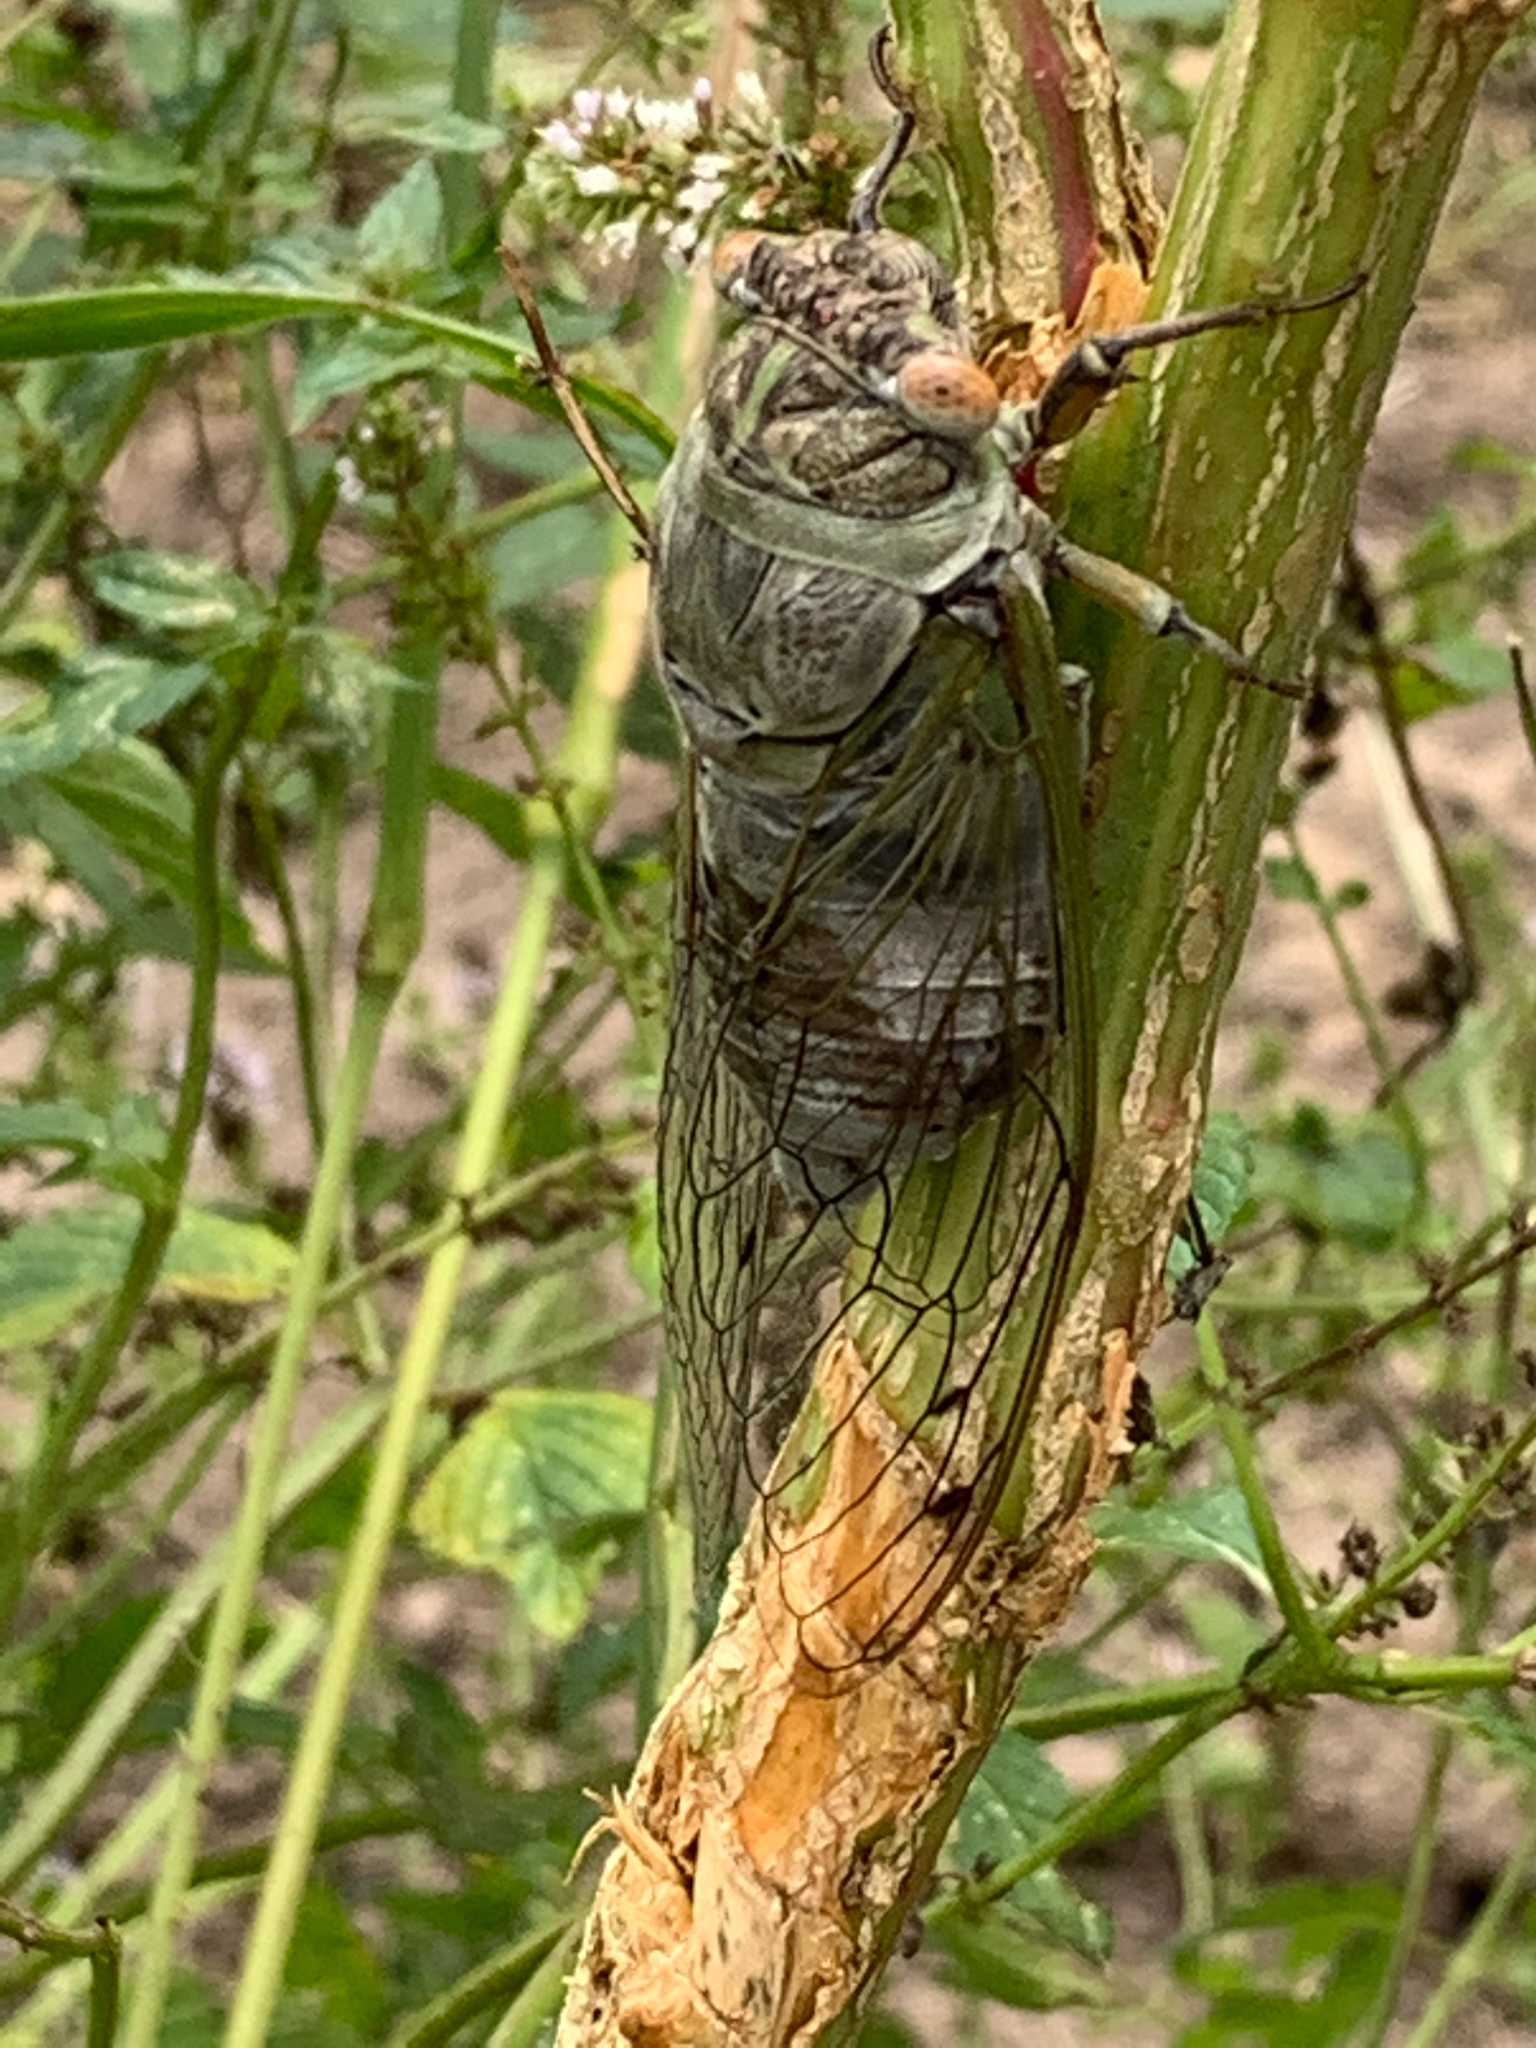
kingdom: Animalia
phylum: Arthropoda
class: Insecta
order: Hemiptera
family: Cicadidae
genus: Diceroprocta
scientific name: Diceroprocta grossa
